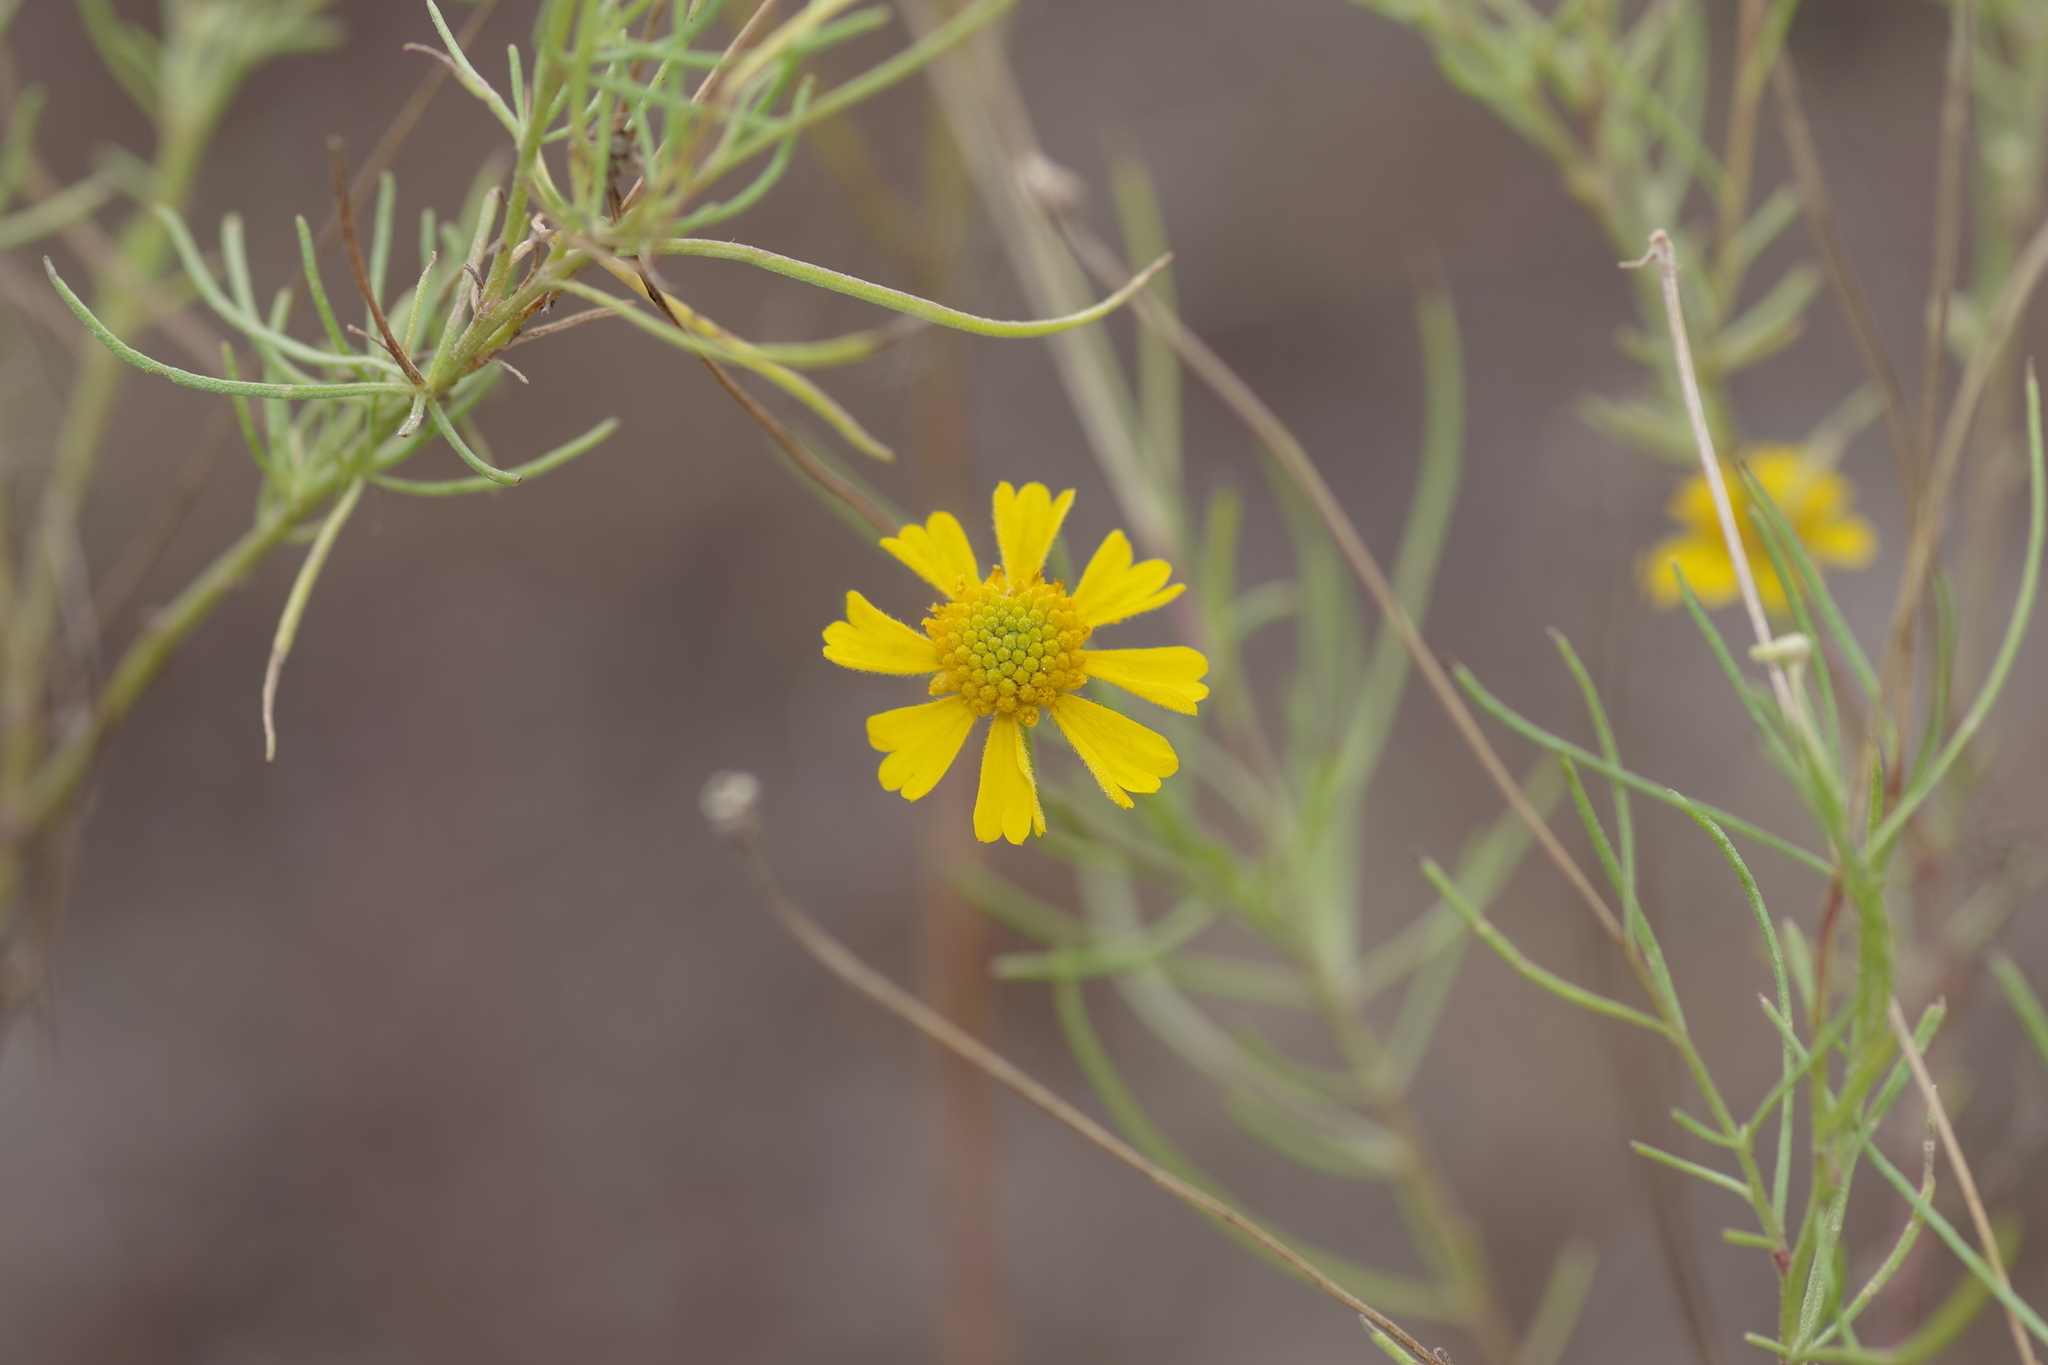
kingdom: Plantae
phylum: Tracheophyta
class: Magnoliopsida
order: Asterales
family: Asteraceae
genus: Helenium
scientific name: Helenium amarum
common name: Bitter sneezeweed
